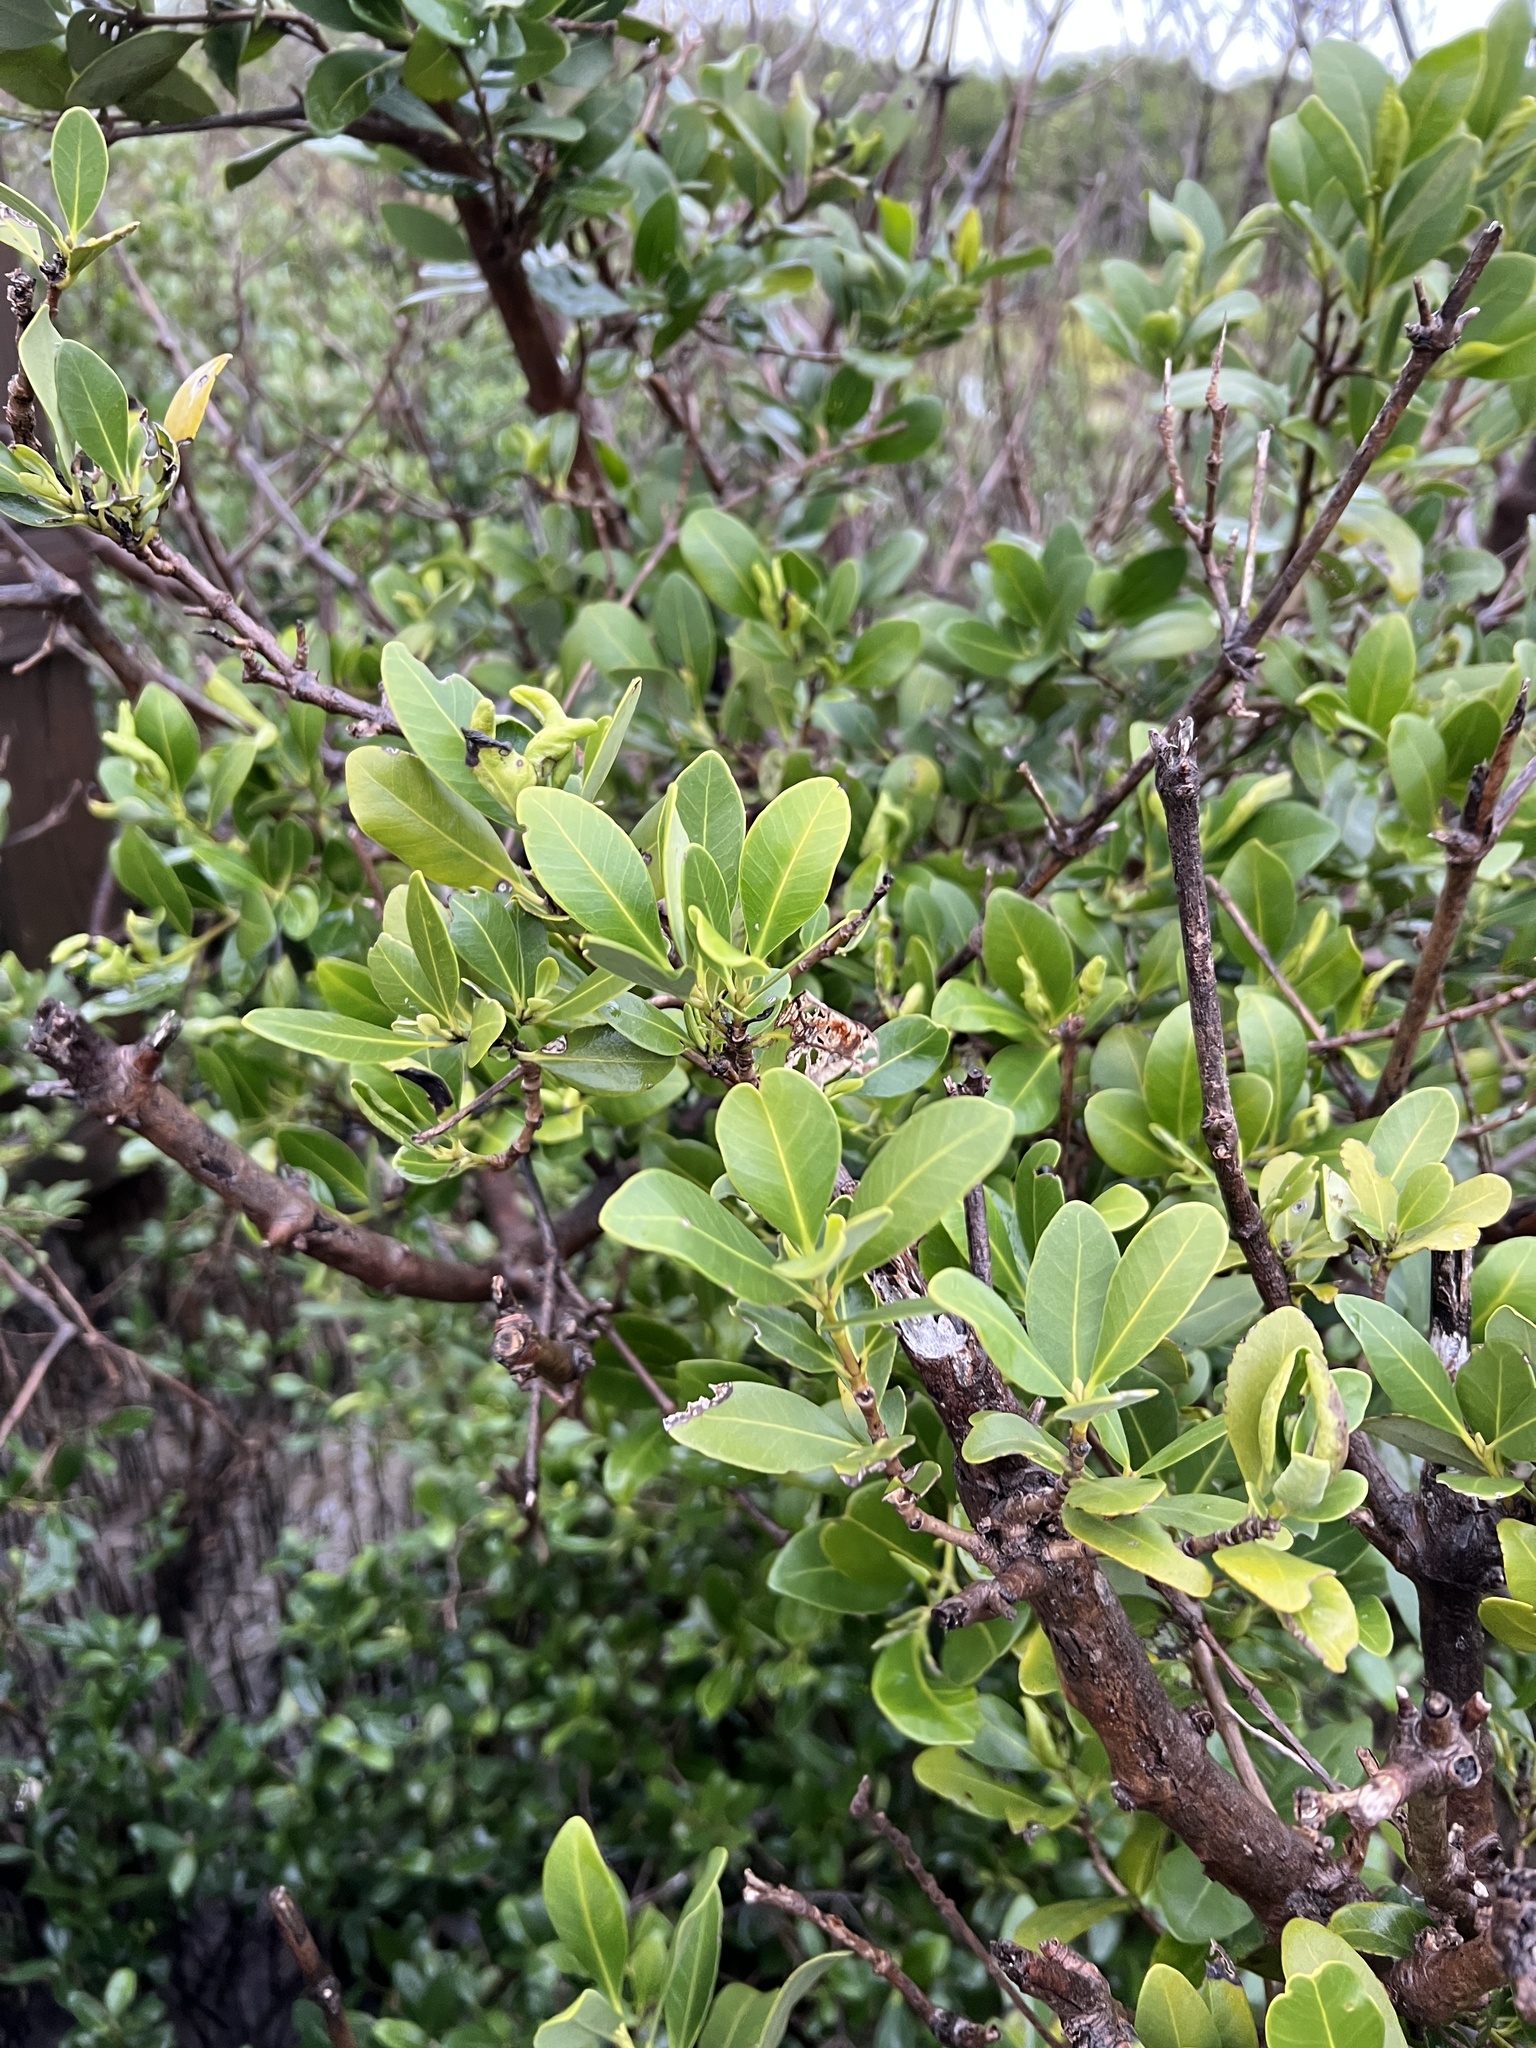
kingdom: Plantae
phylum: Tracheophyta
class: Magnoliopsida
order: Lamiales
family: Acanthaceae
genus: Avicennia
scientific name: Avicennia germinans
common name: Black mangrove
